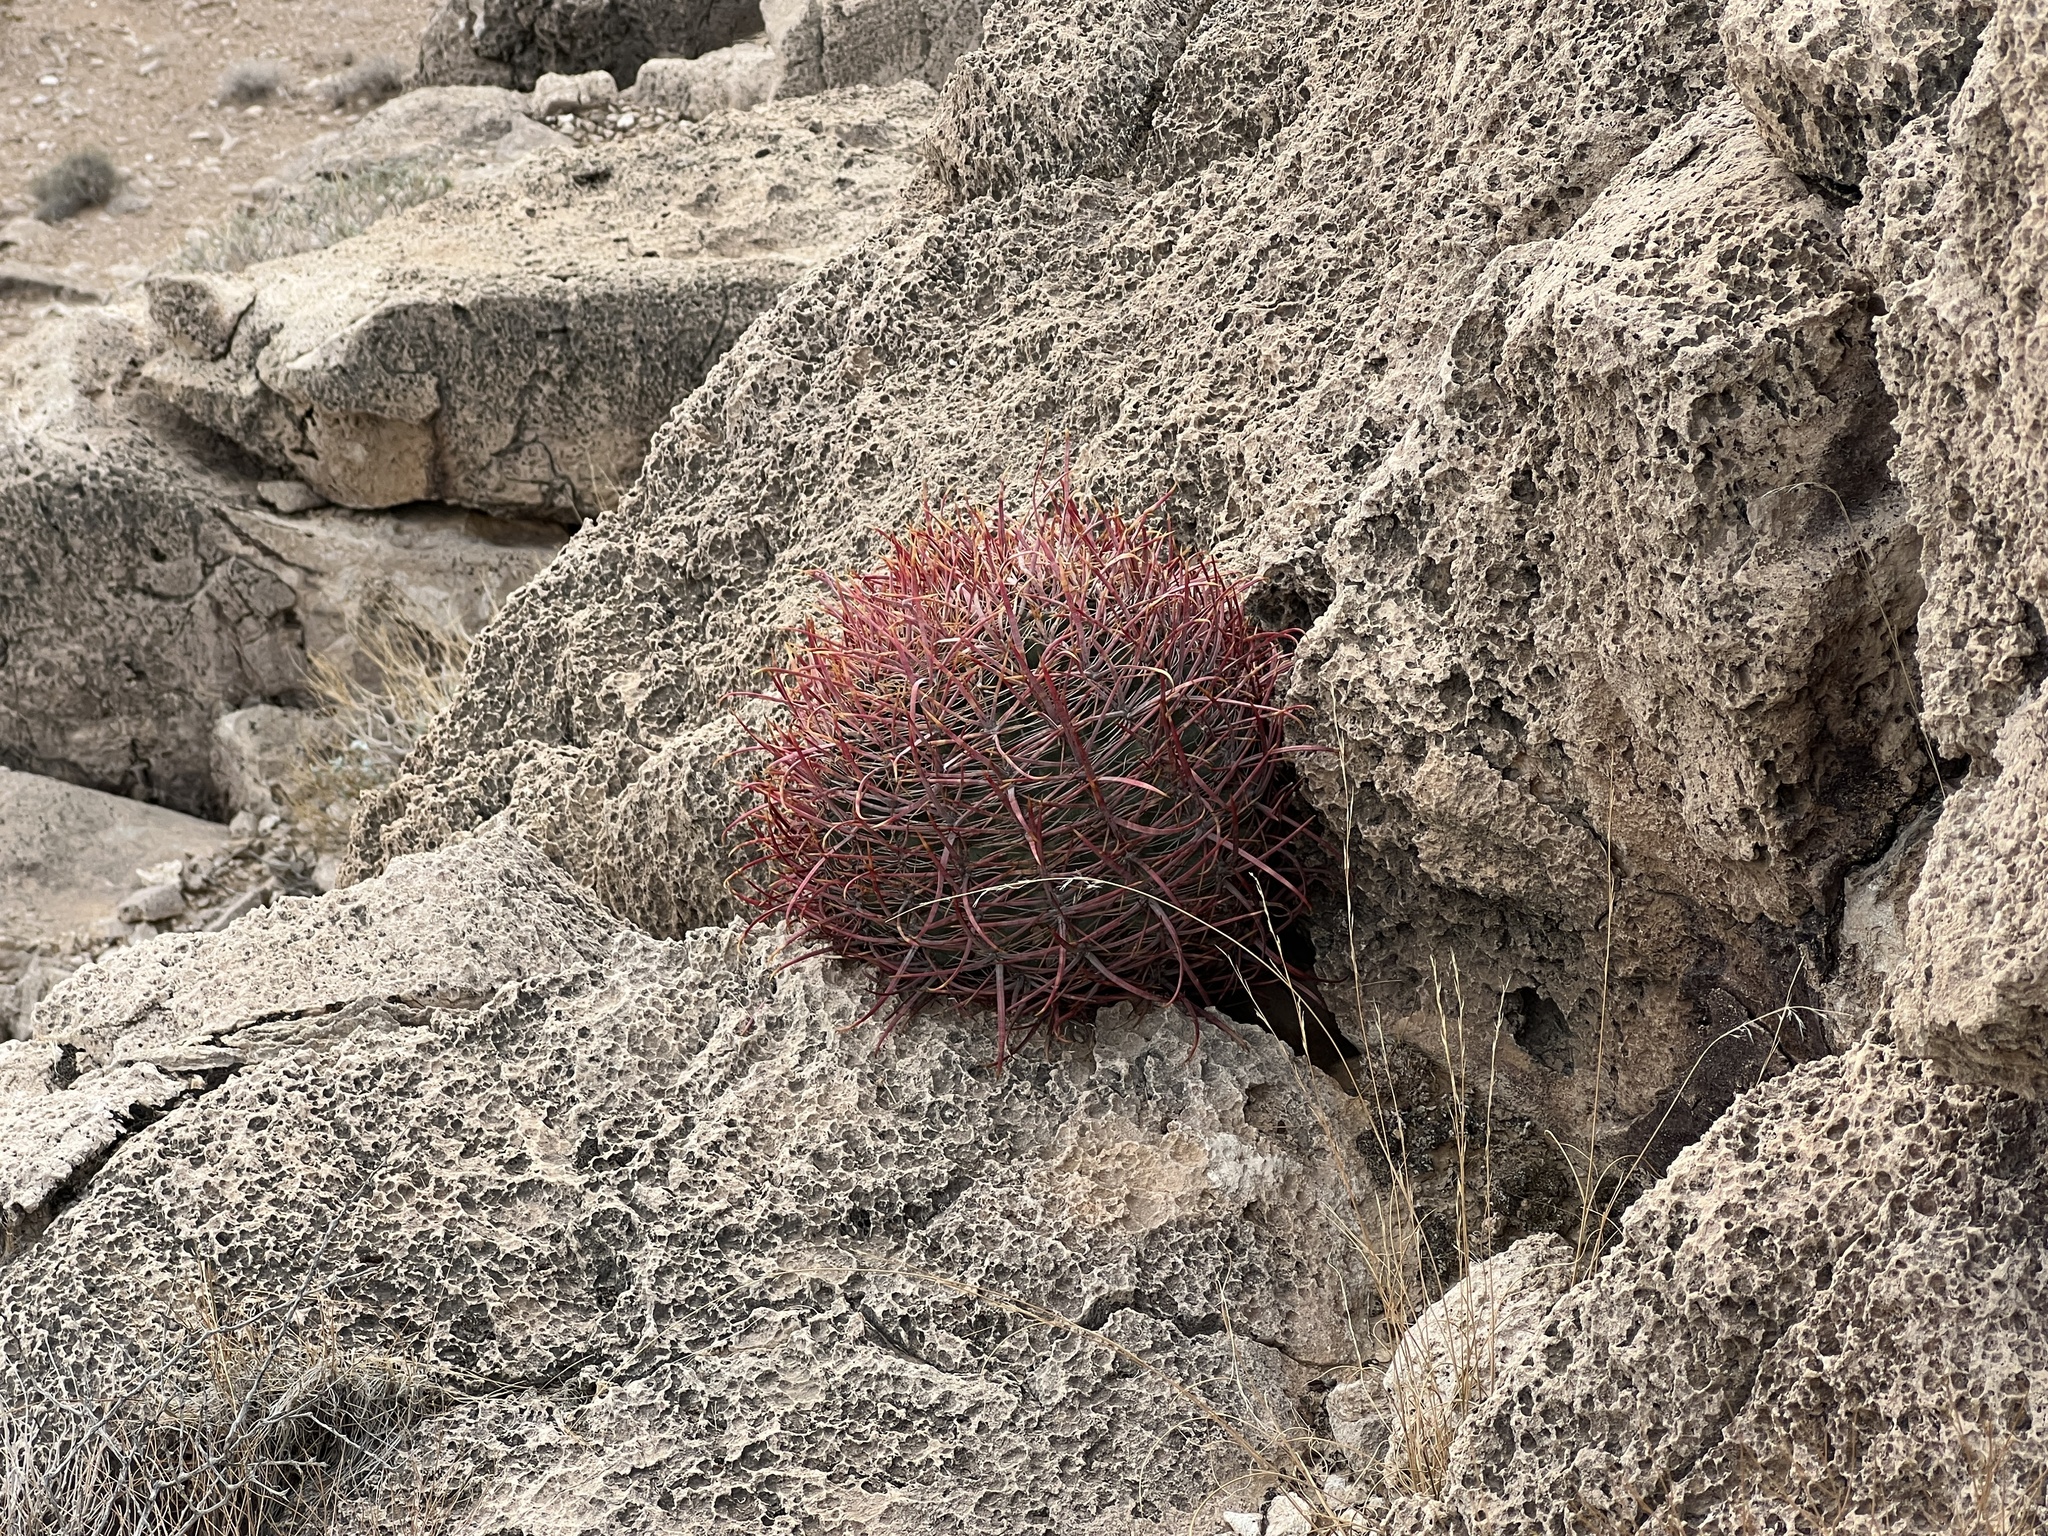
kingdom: Plantae
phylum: Tracheophyta
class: Magnoliopsida
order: Caryophyllales
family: Cactaceae
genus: Ferocactus
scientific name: Ferocactus cylindraceus
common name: California barrel cactus
